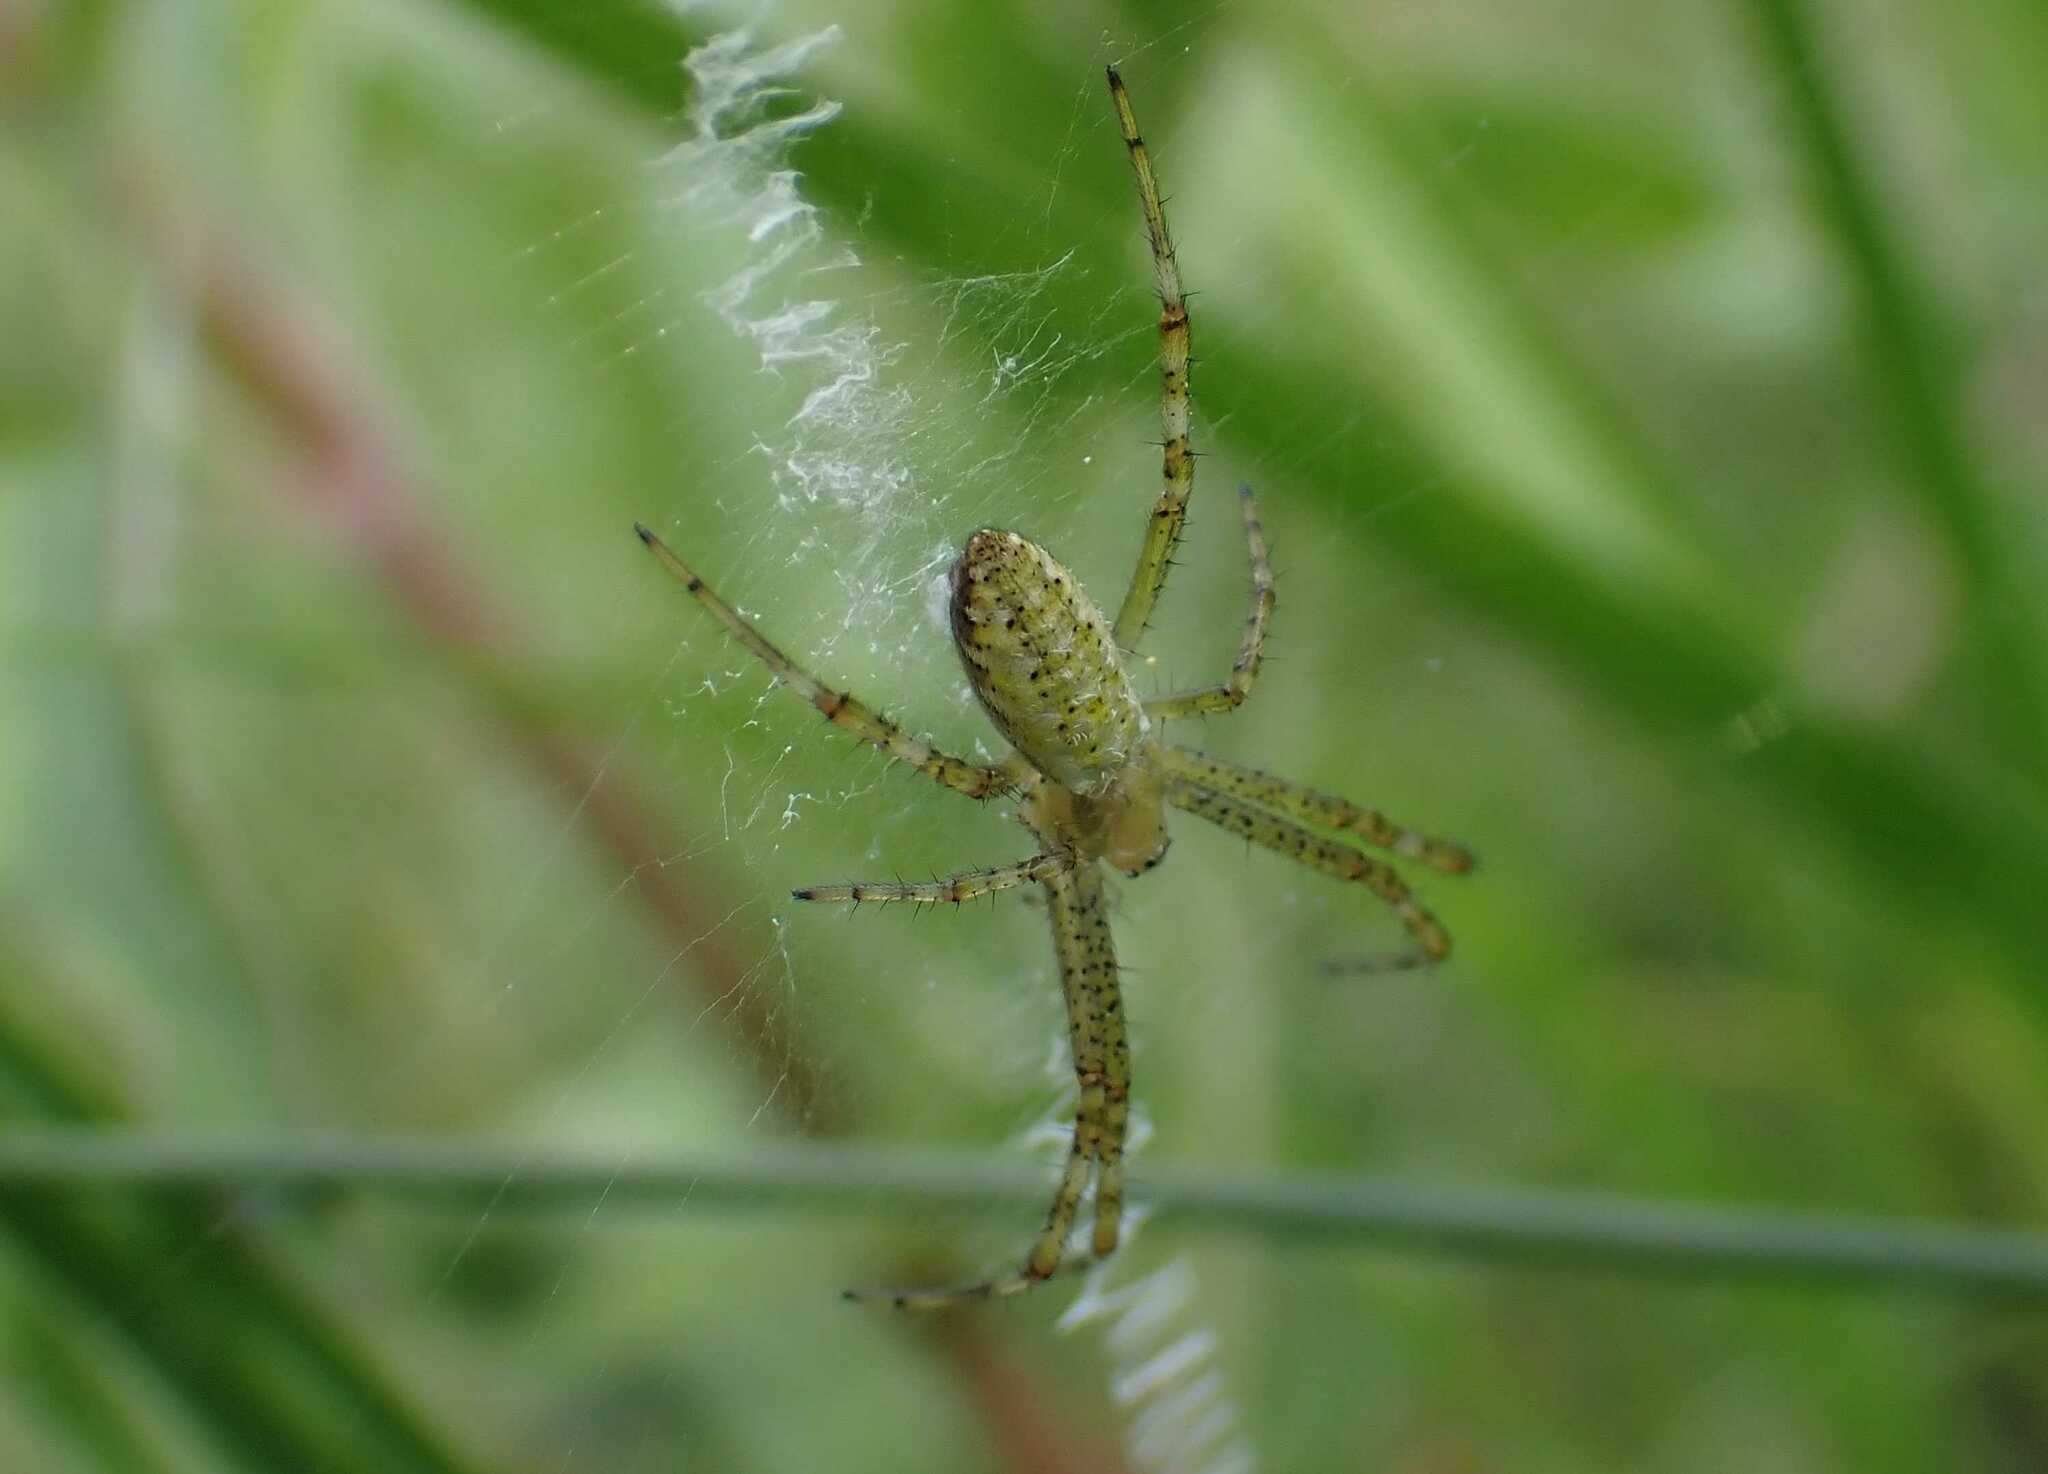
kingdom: Animalia
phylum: Arthropoda
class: Arachnida
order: Araneae
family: Araneidae
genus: Argiope
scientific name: Argiope bruennichi
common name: Wasp spider
